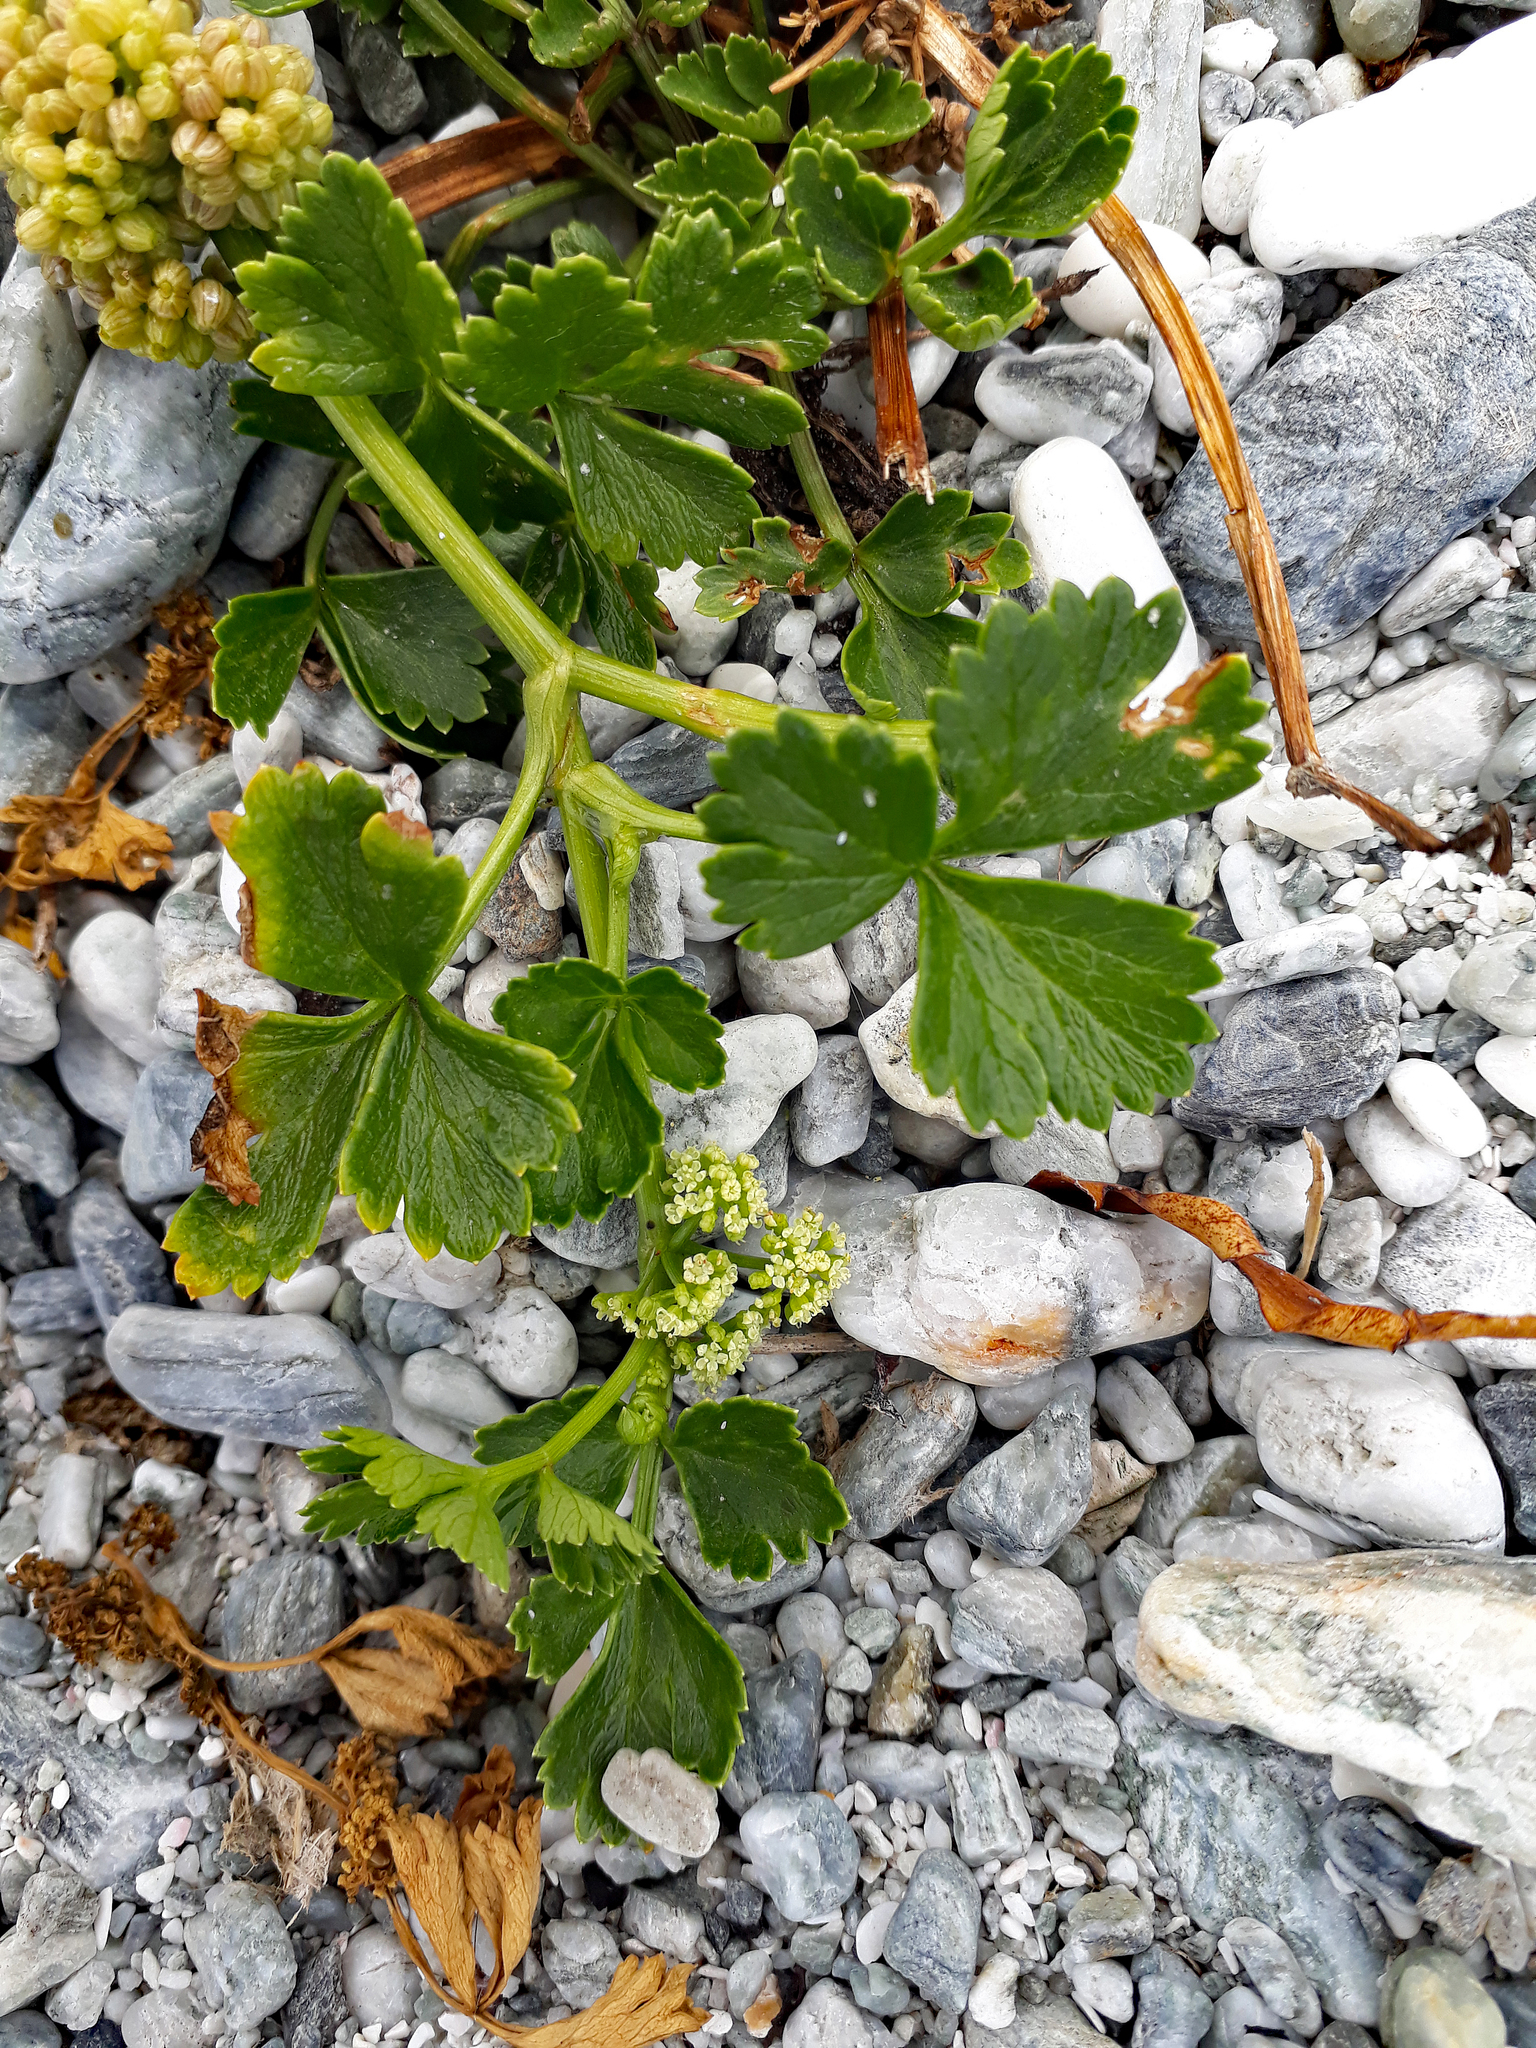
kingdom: Plantae
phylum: Tracheophyta
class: Magnoliopsida
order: Apiales
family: Apiaceae
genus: Apium
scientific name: Apium prostratum
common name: Prostrate marshwort
